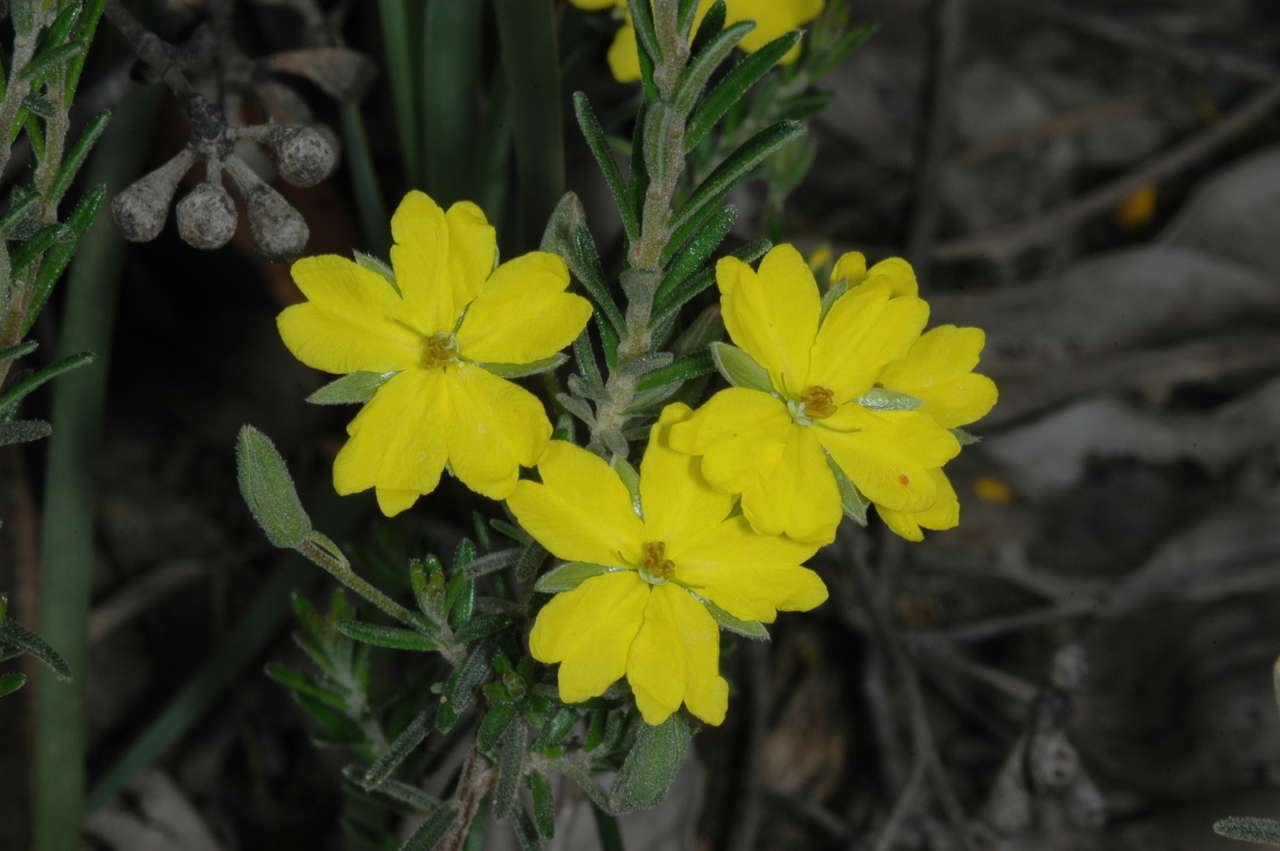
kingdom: Plantae
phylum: Tracheophyta
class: Magnoliopsida
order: Dilleniales
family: Dilleniaceae
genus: Hibbertia
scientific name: Hibbertia australis
